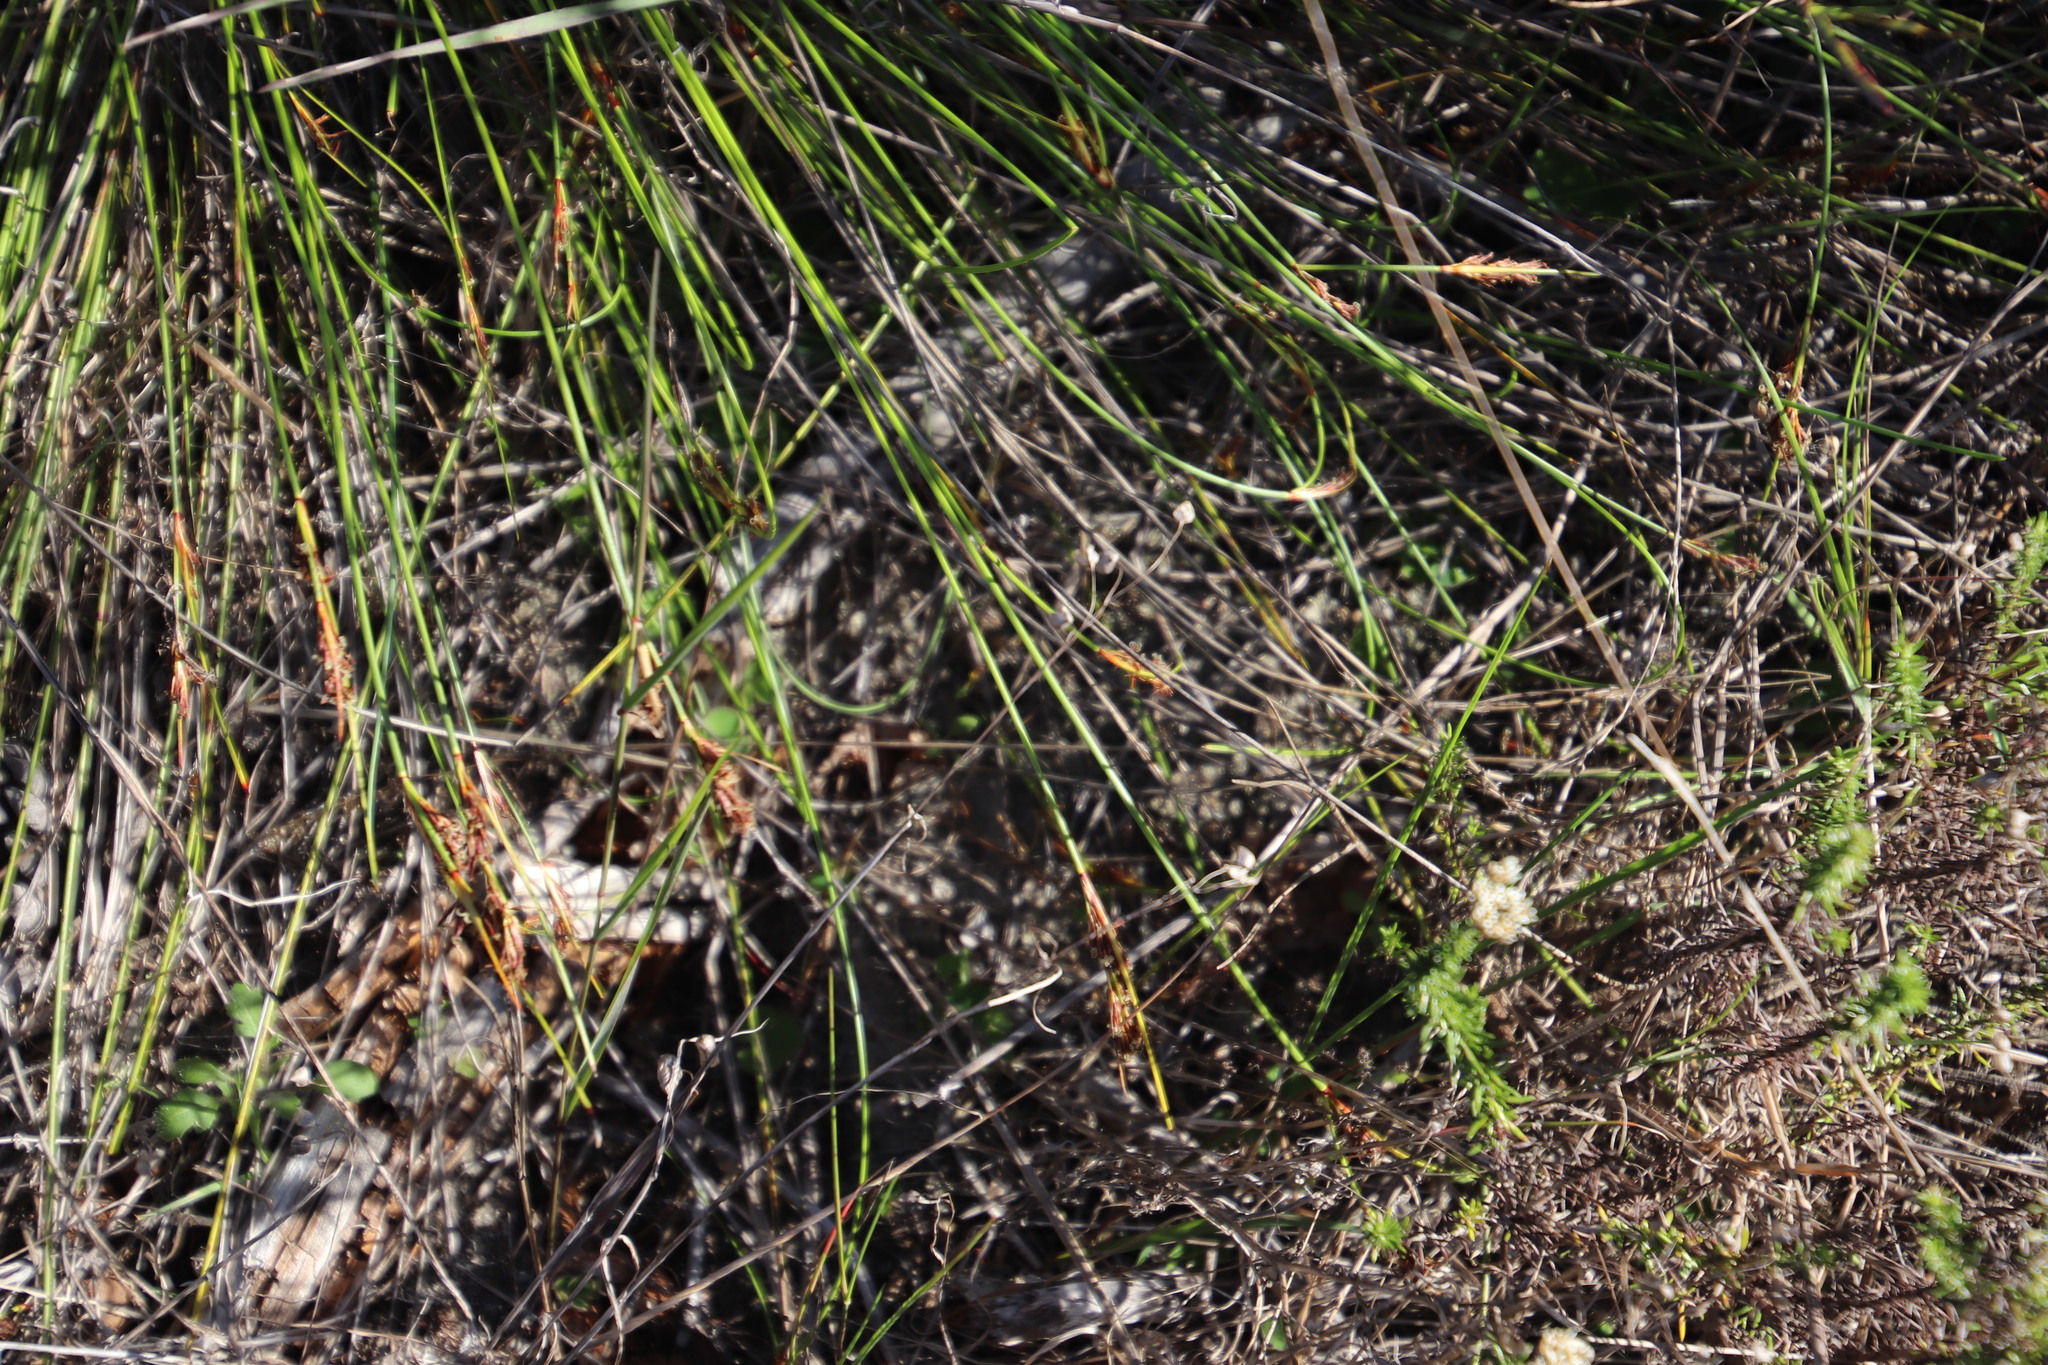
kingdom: Plantae
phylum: Tracheophyta
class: Liliopsida
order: Poales
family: Cyperaceae
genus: Schoenus
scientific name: Schoenus auritus
